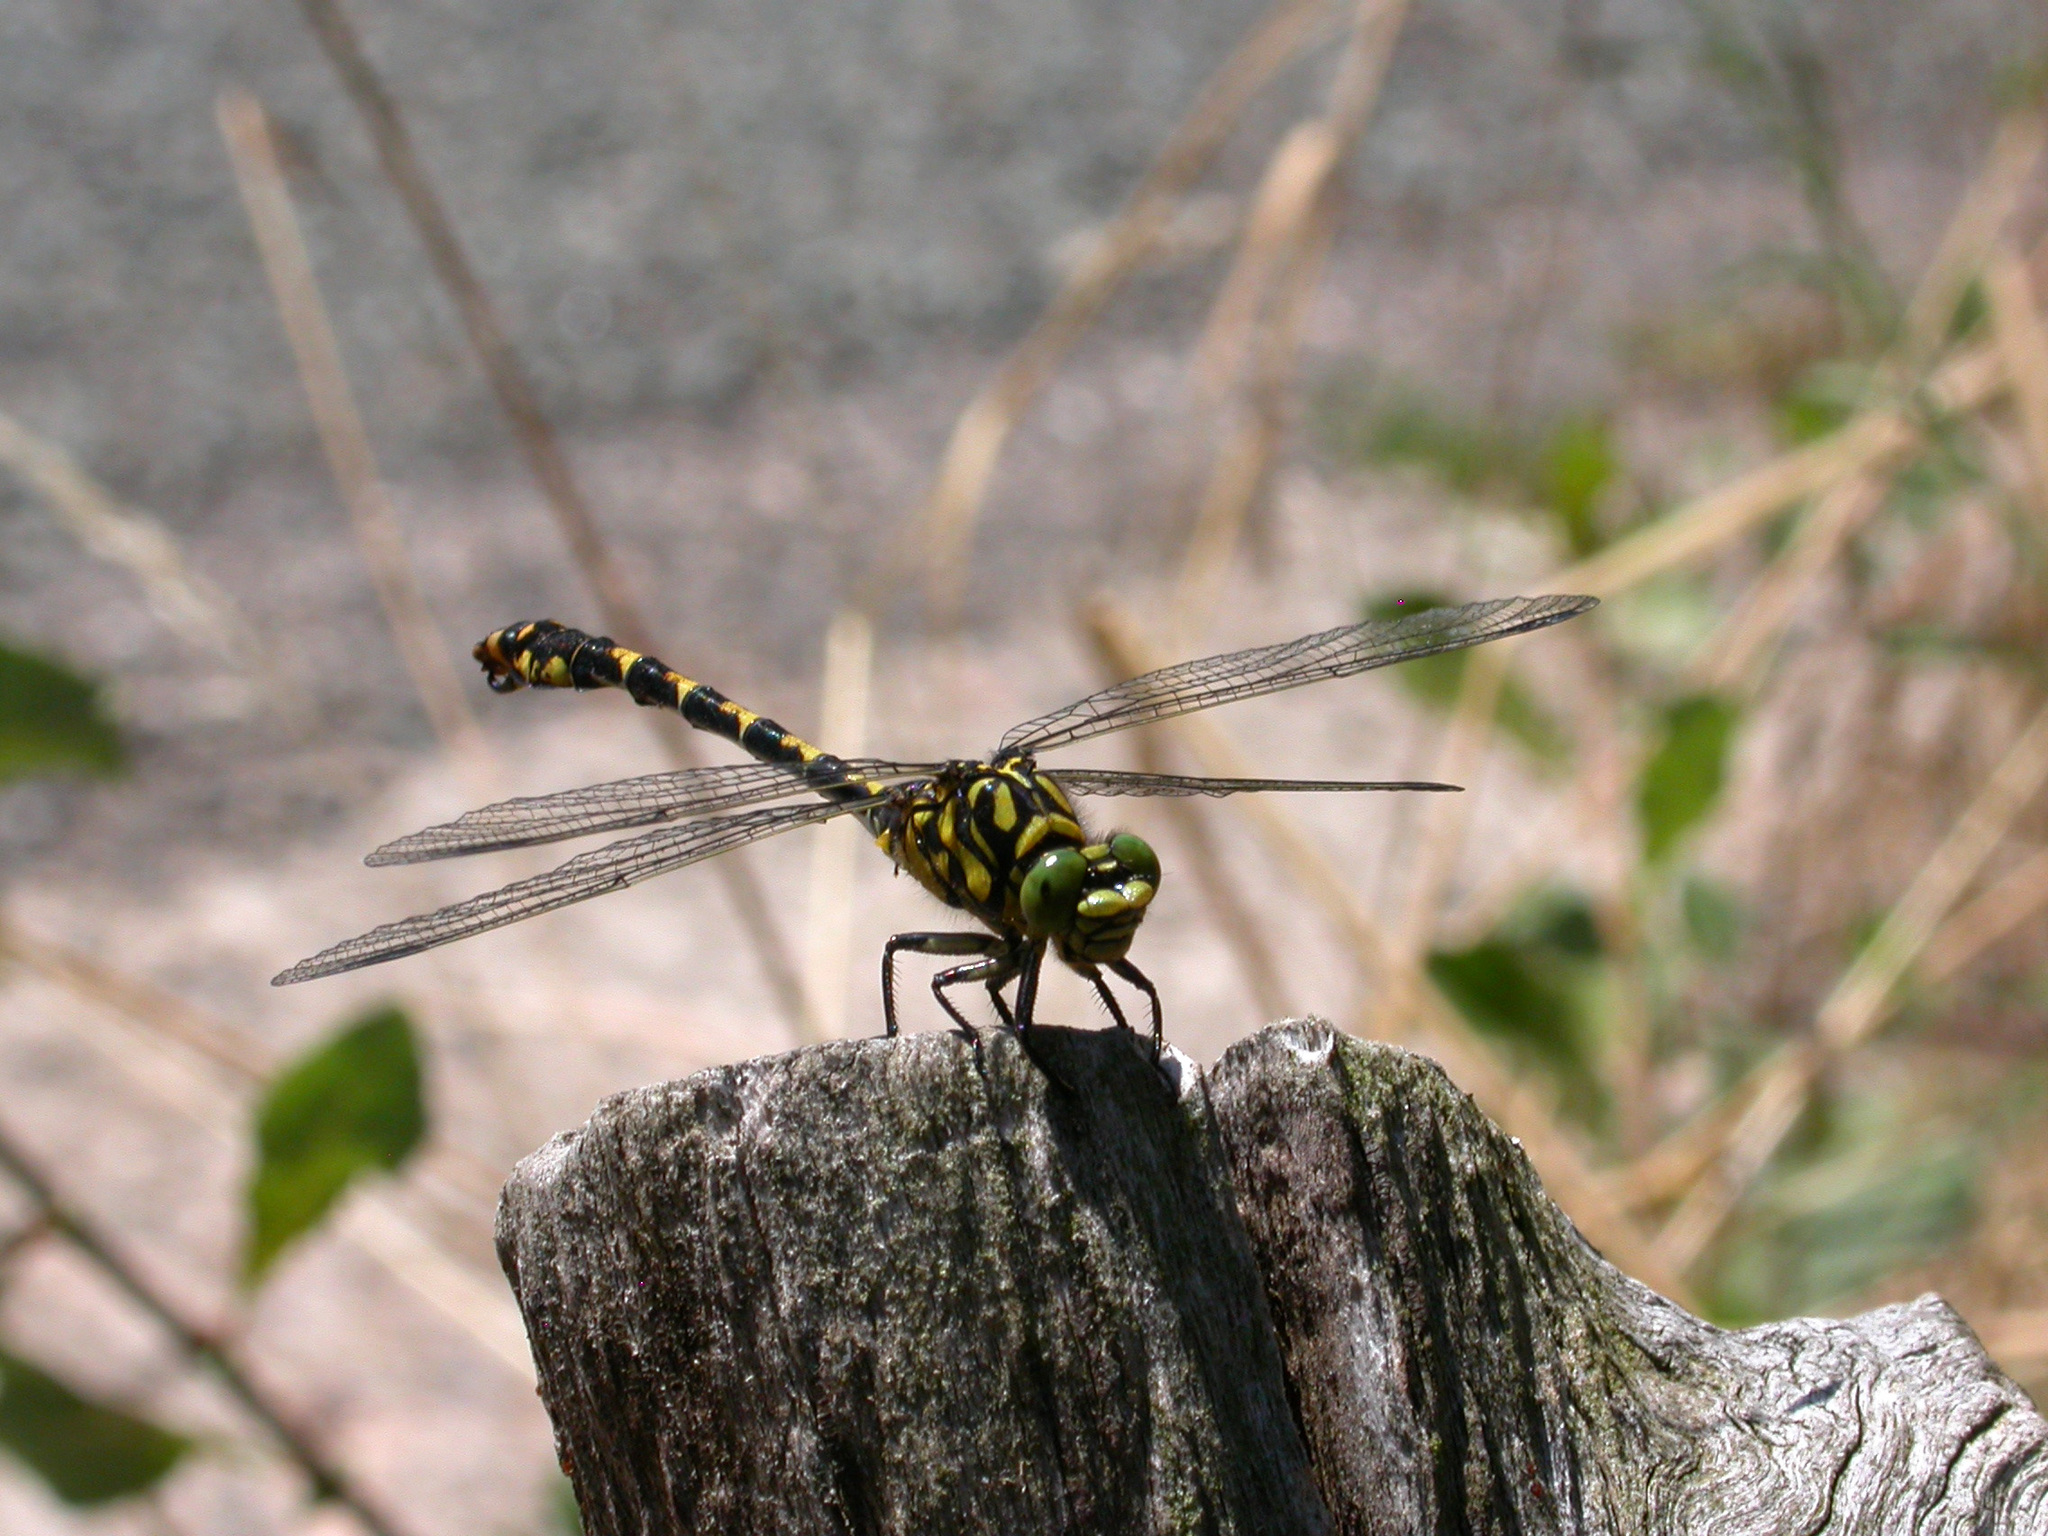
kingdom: Animalia
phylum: Arthropoda
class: Insecta
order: Odonata
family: Gomphidae
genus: Onychogomphus
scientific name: Onychogomphus forcipatus
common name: Small pincertail
